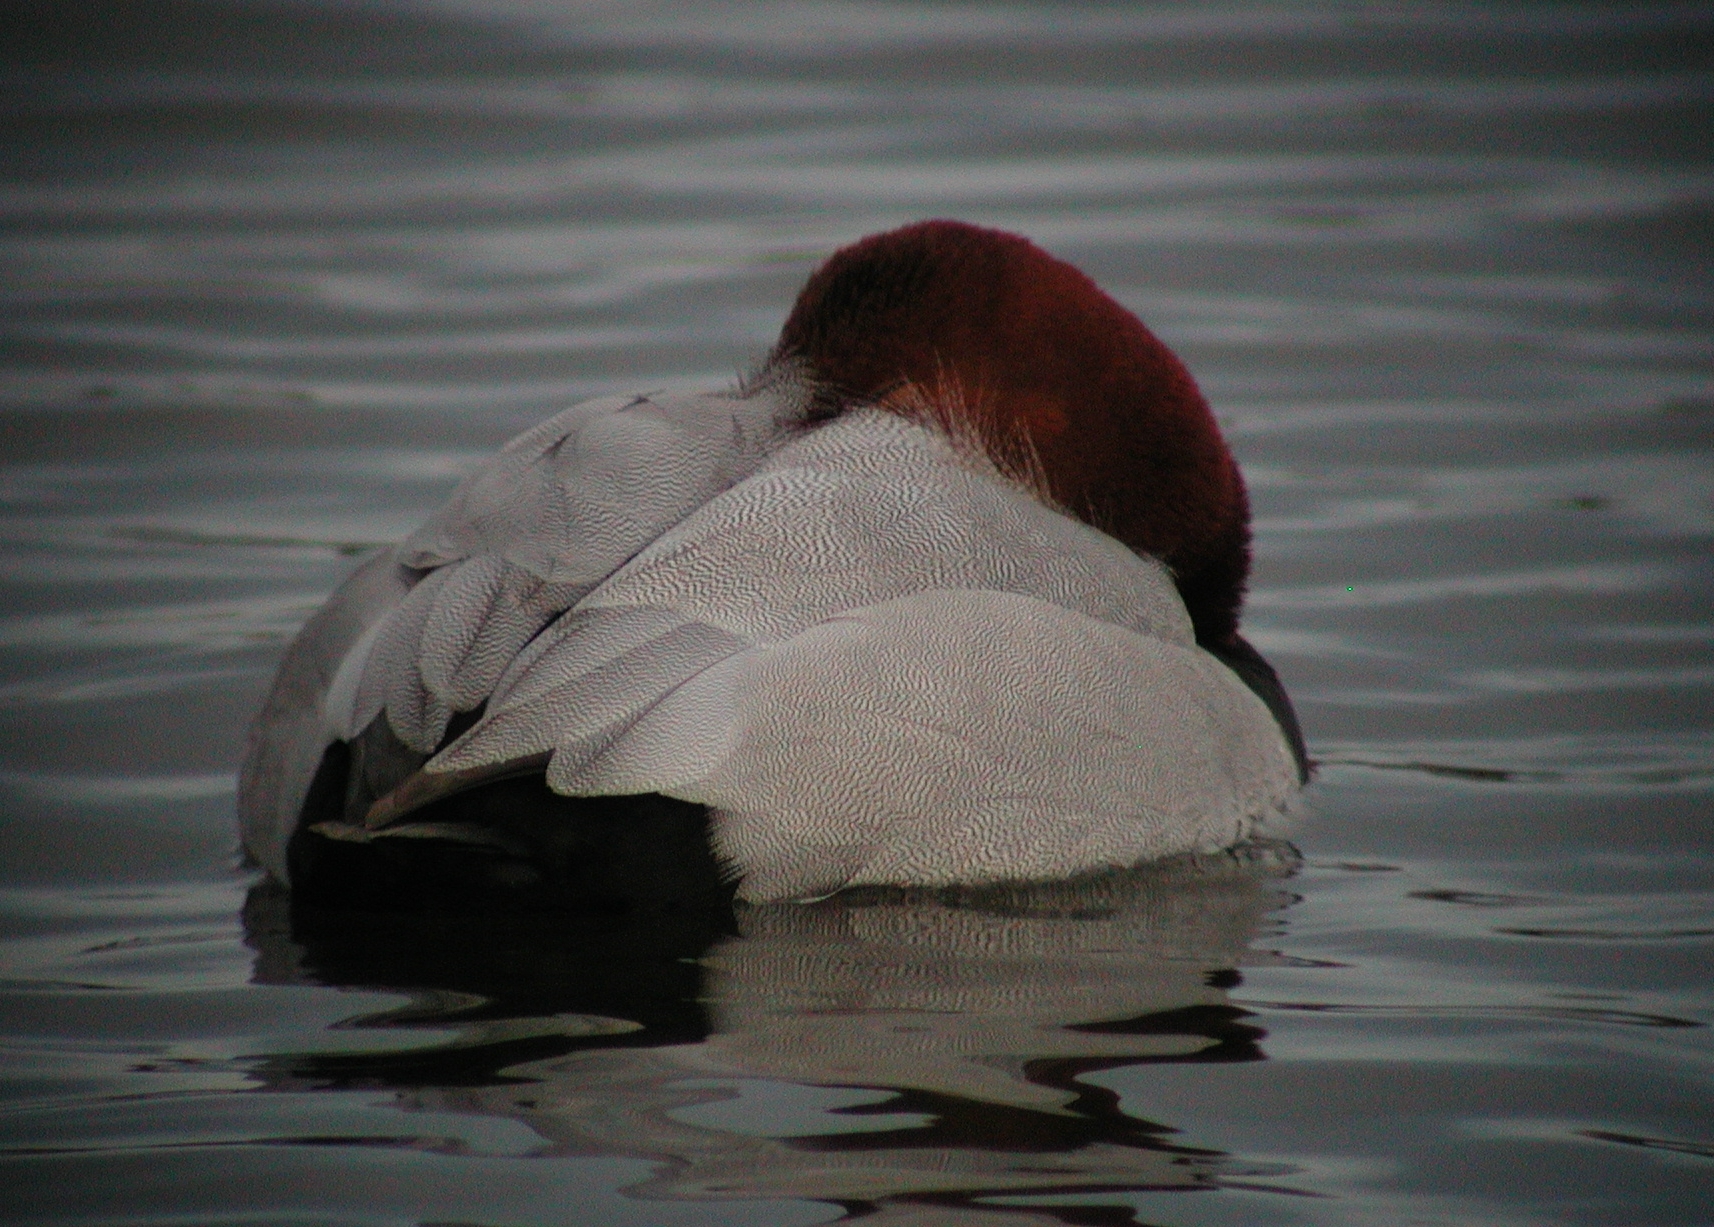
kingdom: Animalia
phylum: Chordata
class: Aves
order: Anseriformes
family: Anatidae
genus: Aythya
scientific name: Aythya ferina
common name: Common pochard
